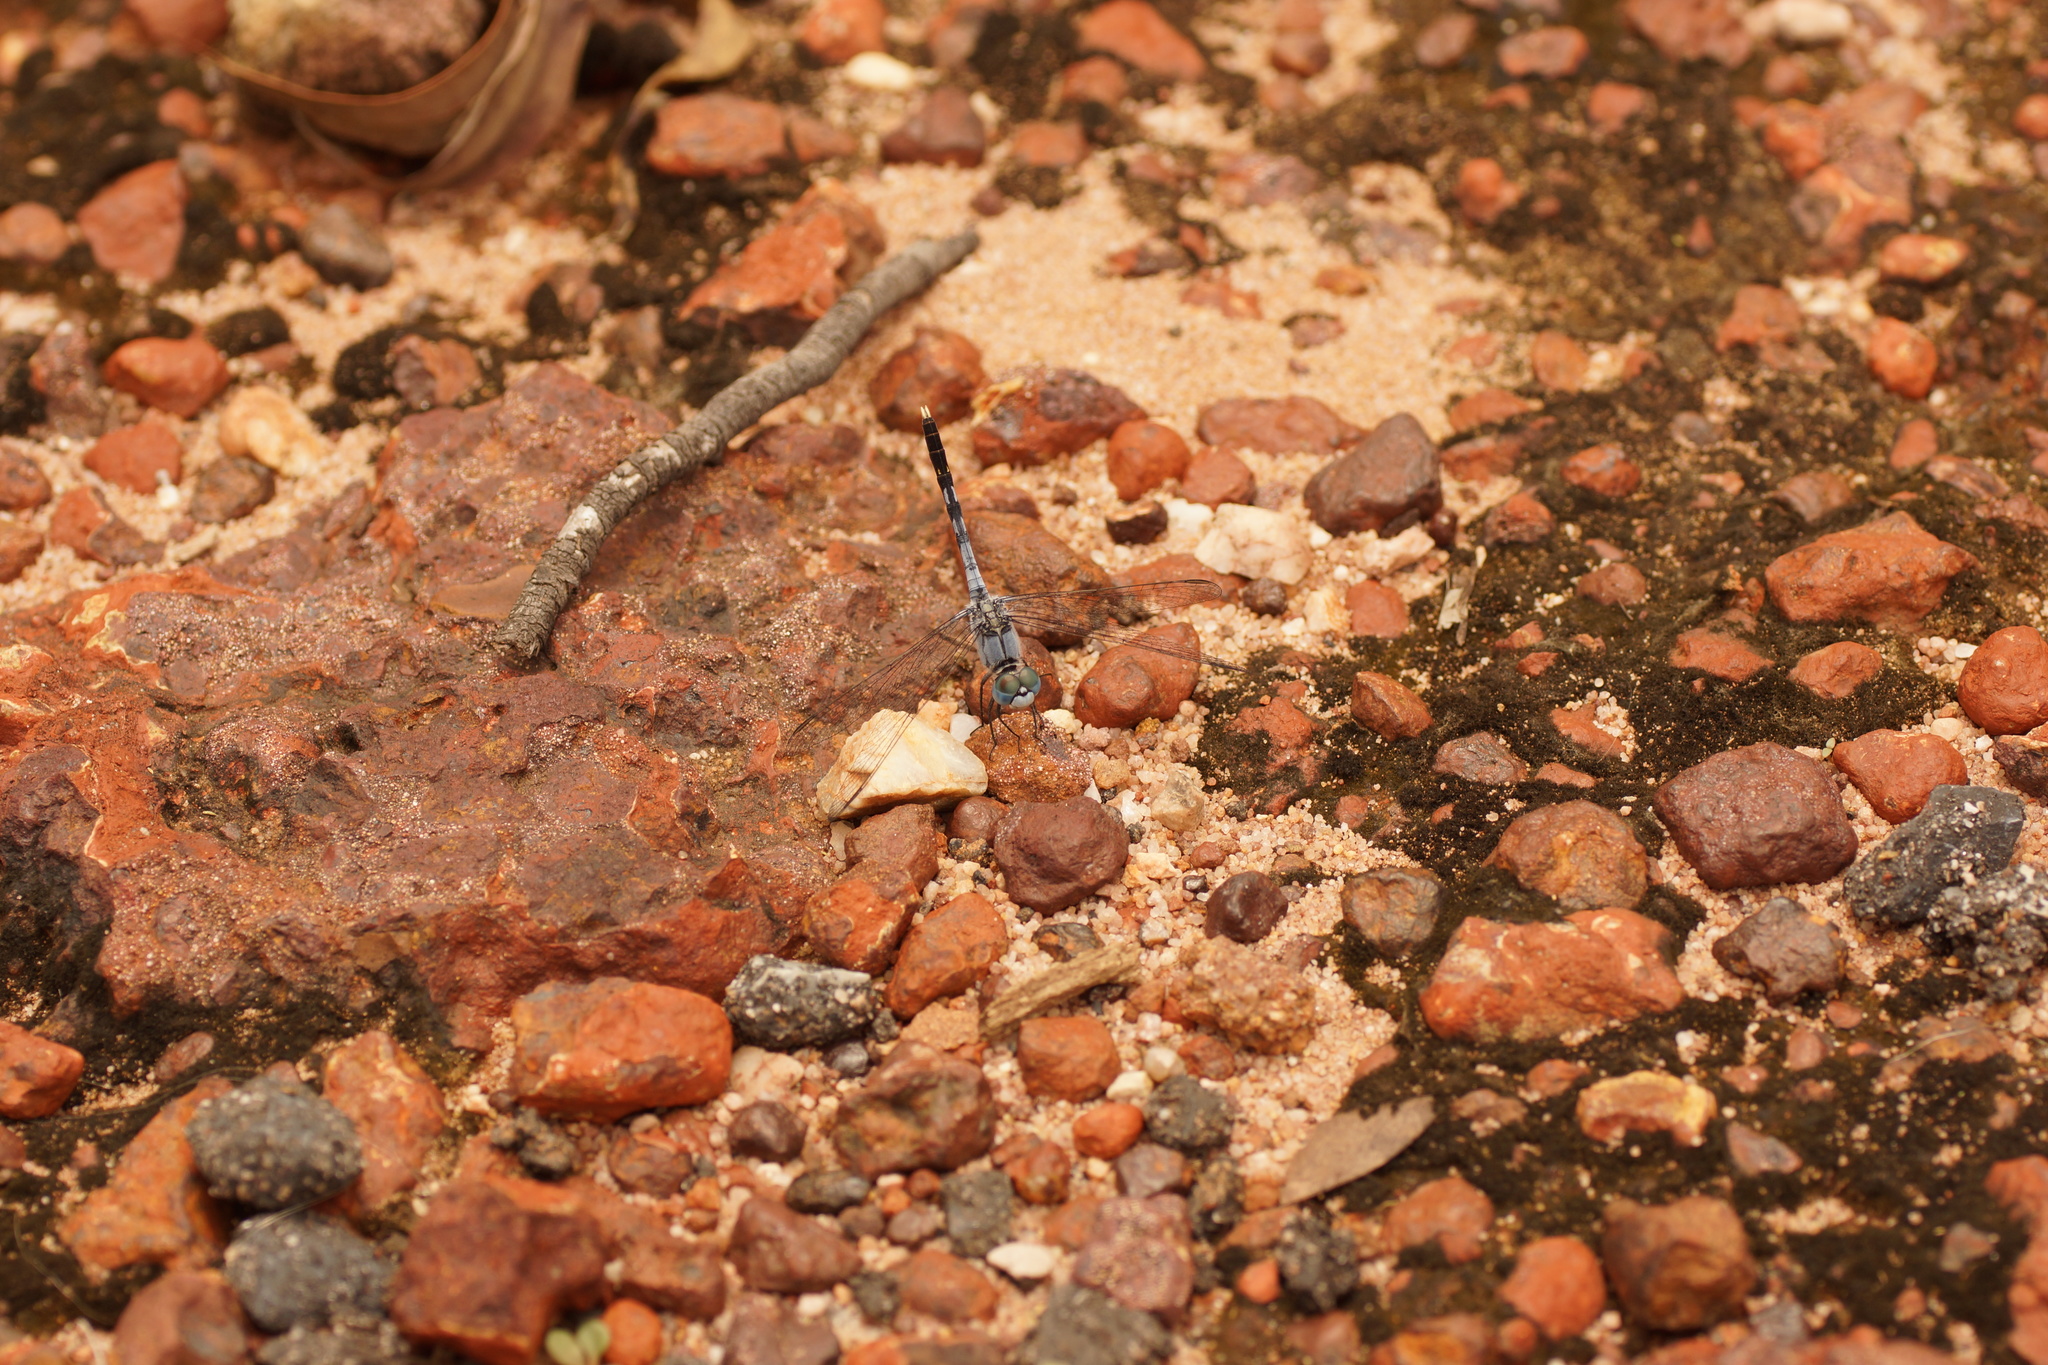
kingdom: Animalia
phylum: Arthropoda
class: Insecta
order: Odonata
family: Libellulidae
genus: Diplacodes
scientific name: Diplacodes trivialis
